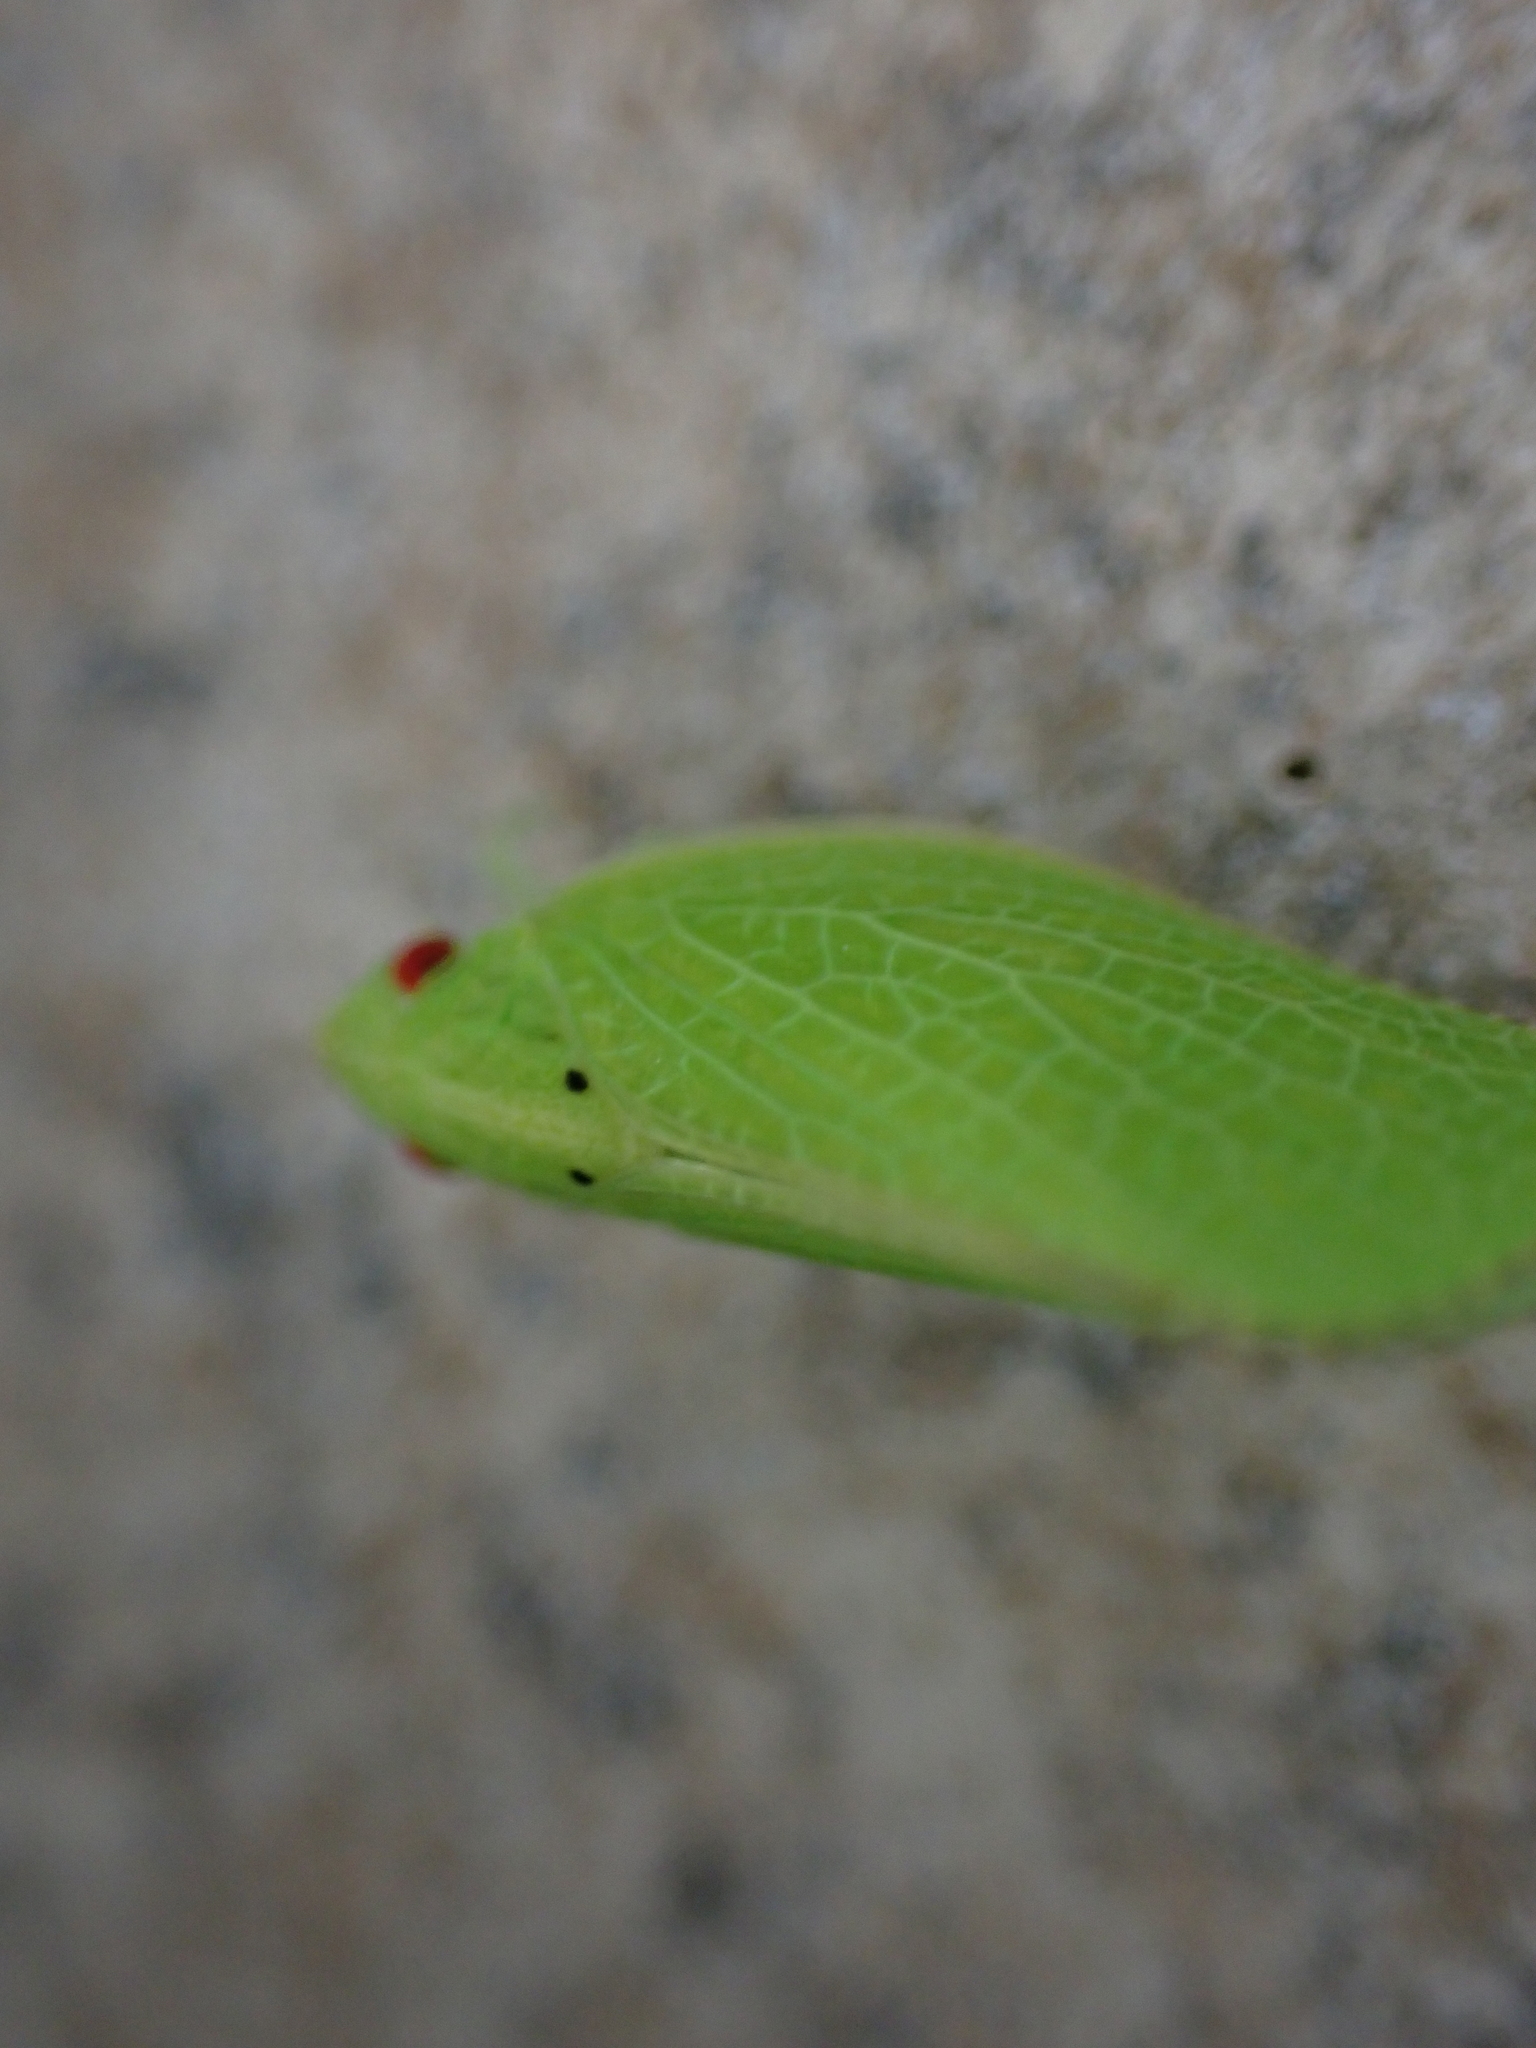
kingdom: Animalia
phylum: Arthropoda
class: Insecta
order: Hemiptera
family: Acanaloniidae
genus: Acanalonia
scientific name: Acanalonia conica
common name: Green cone-headed planthopper
